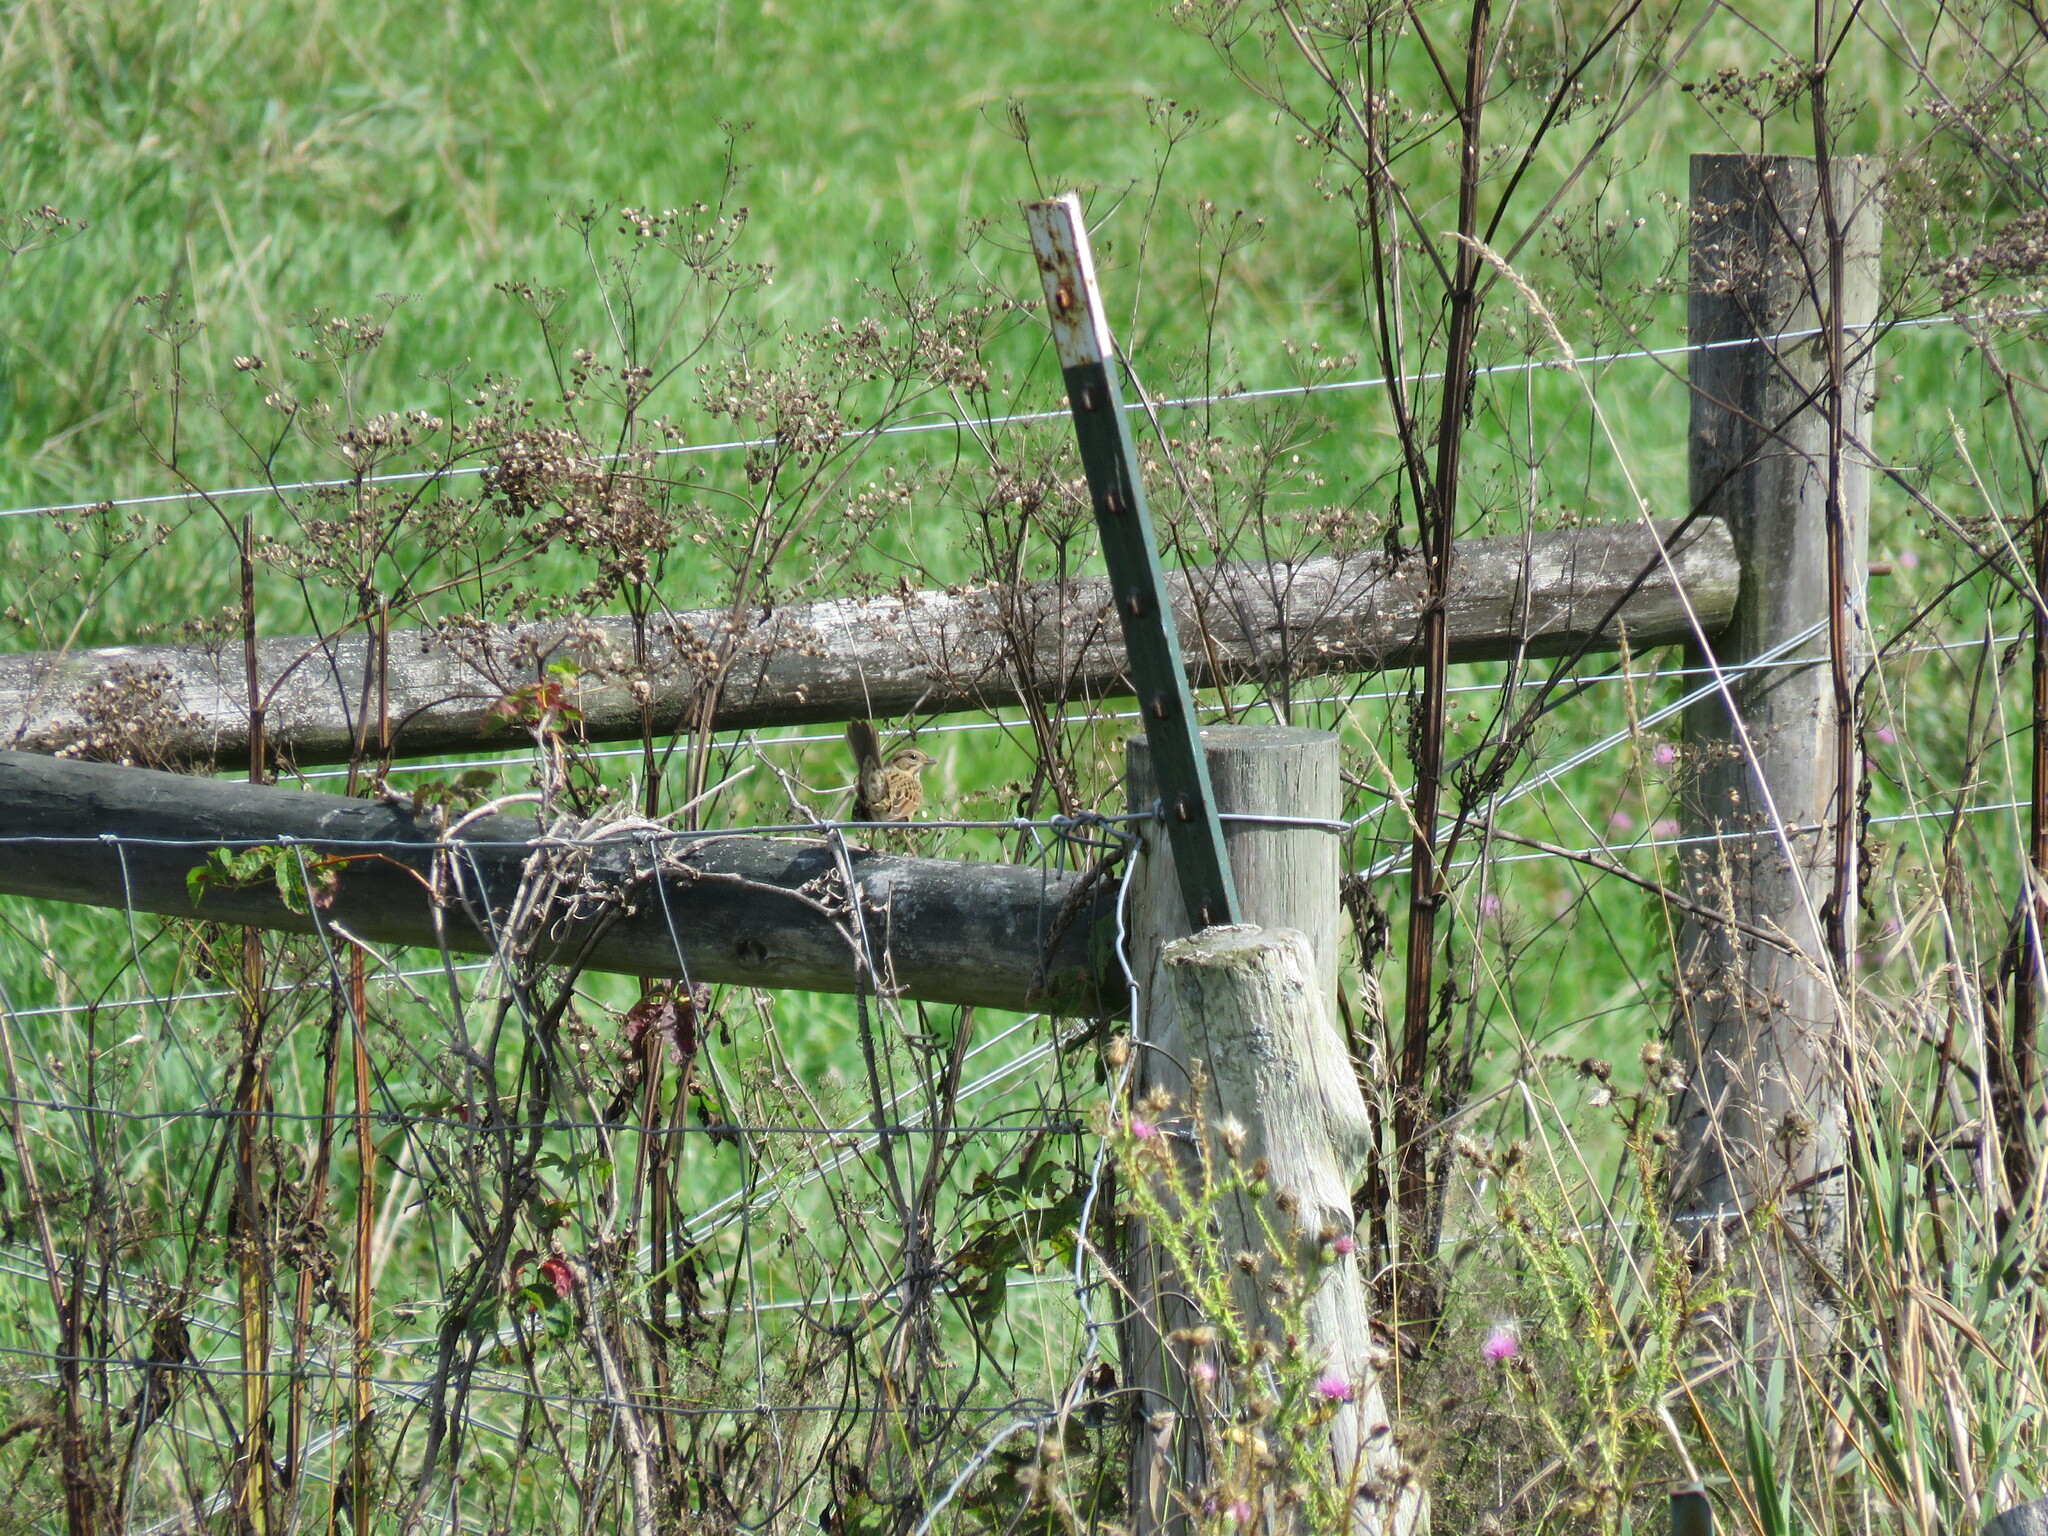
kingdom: Animalia
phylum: Chordata
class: Aves
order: Passeriformes
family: Passerellidae
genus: Melospiza
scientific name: Melospiza lincolnii
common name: Lincoln's sparrow
